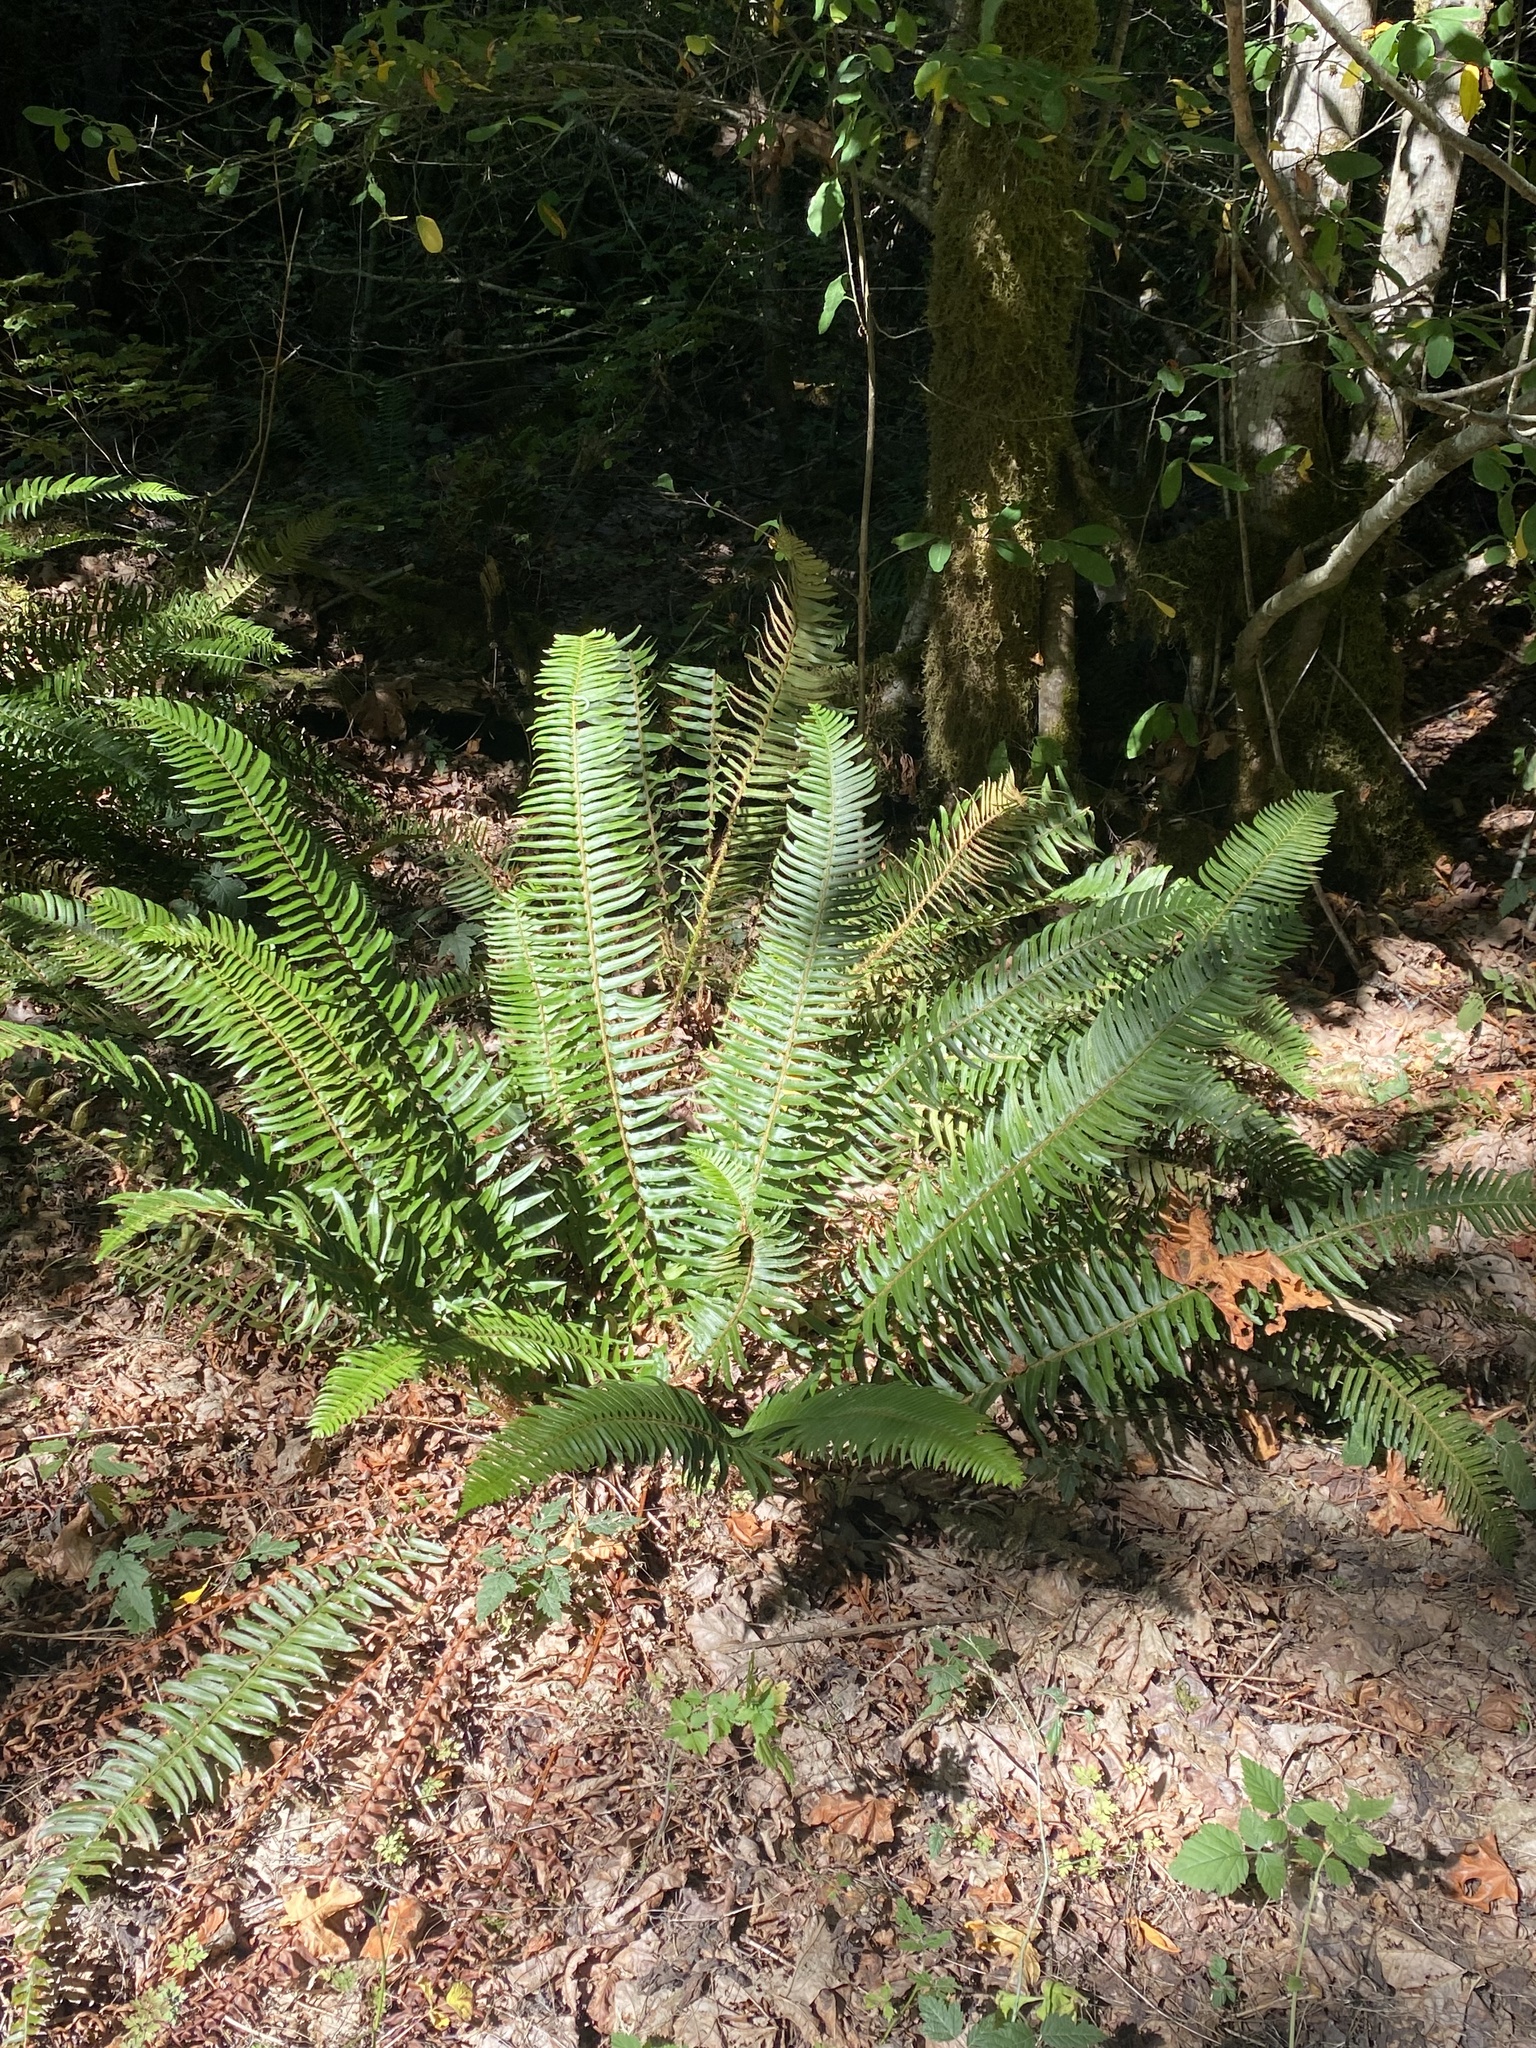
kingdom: Plantae
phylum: Tracheophyta
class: Polypodiopsida
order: Polypodiales
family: Dryopteridaceae
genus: Polystichum
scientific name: Polystichum munitum
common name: Western sword-fern
